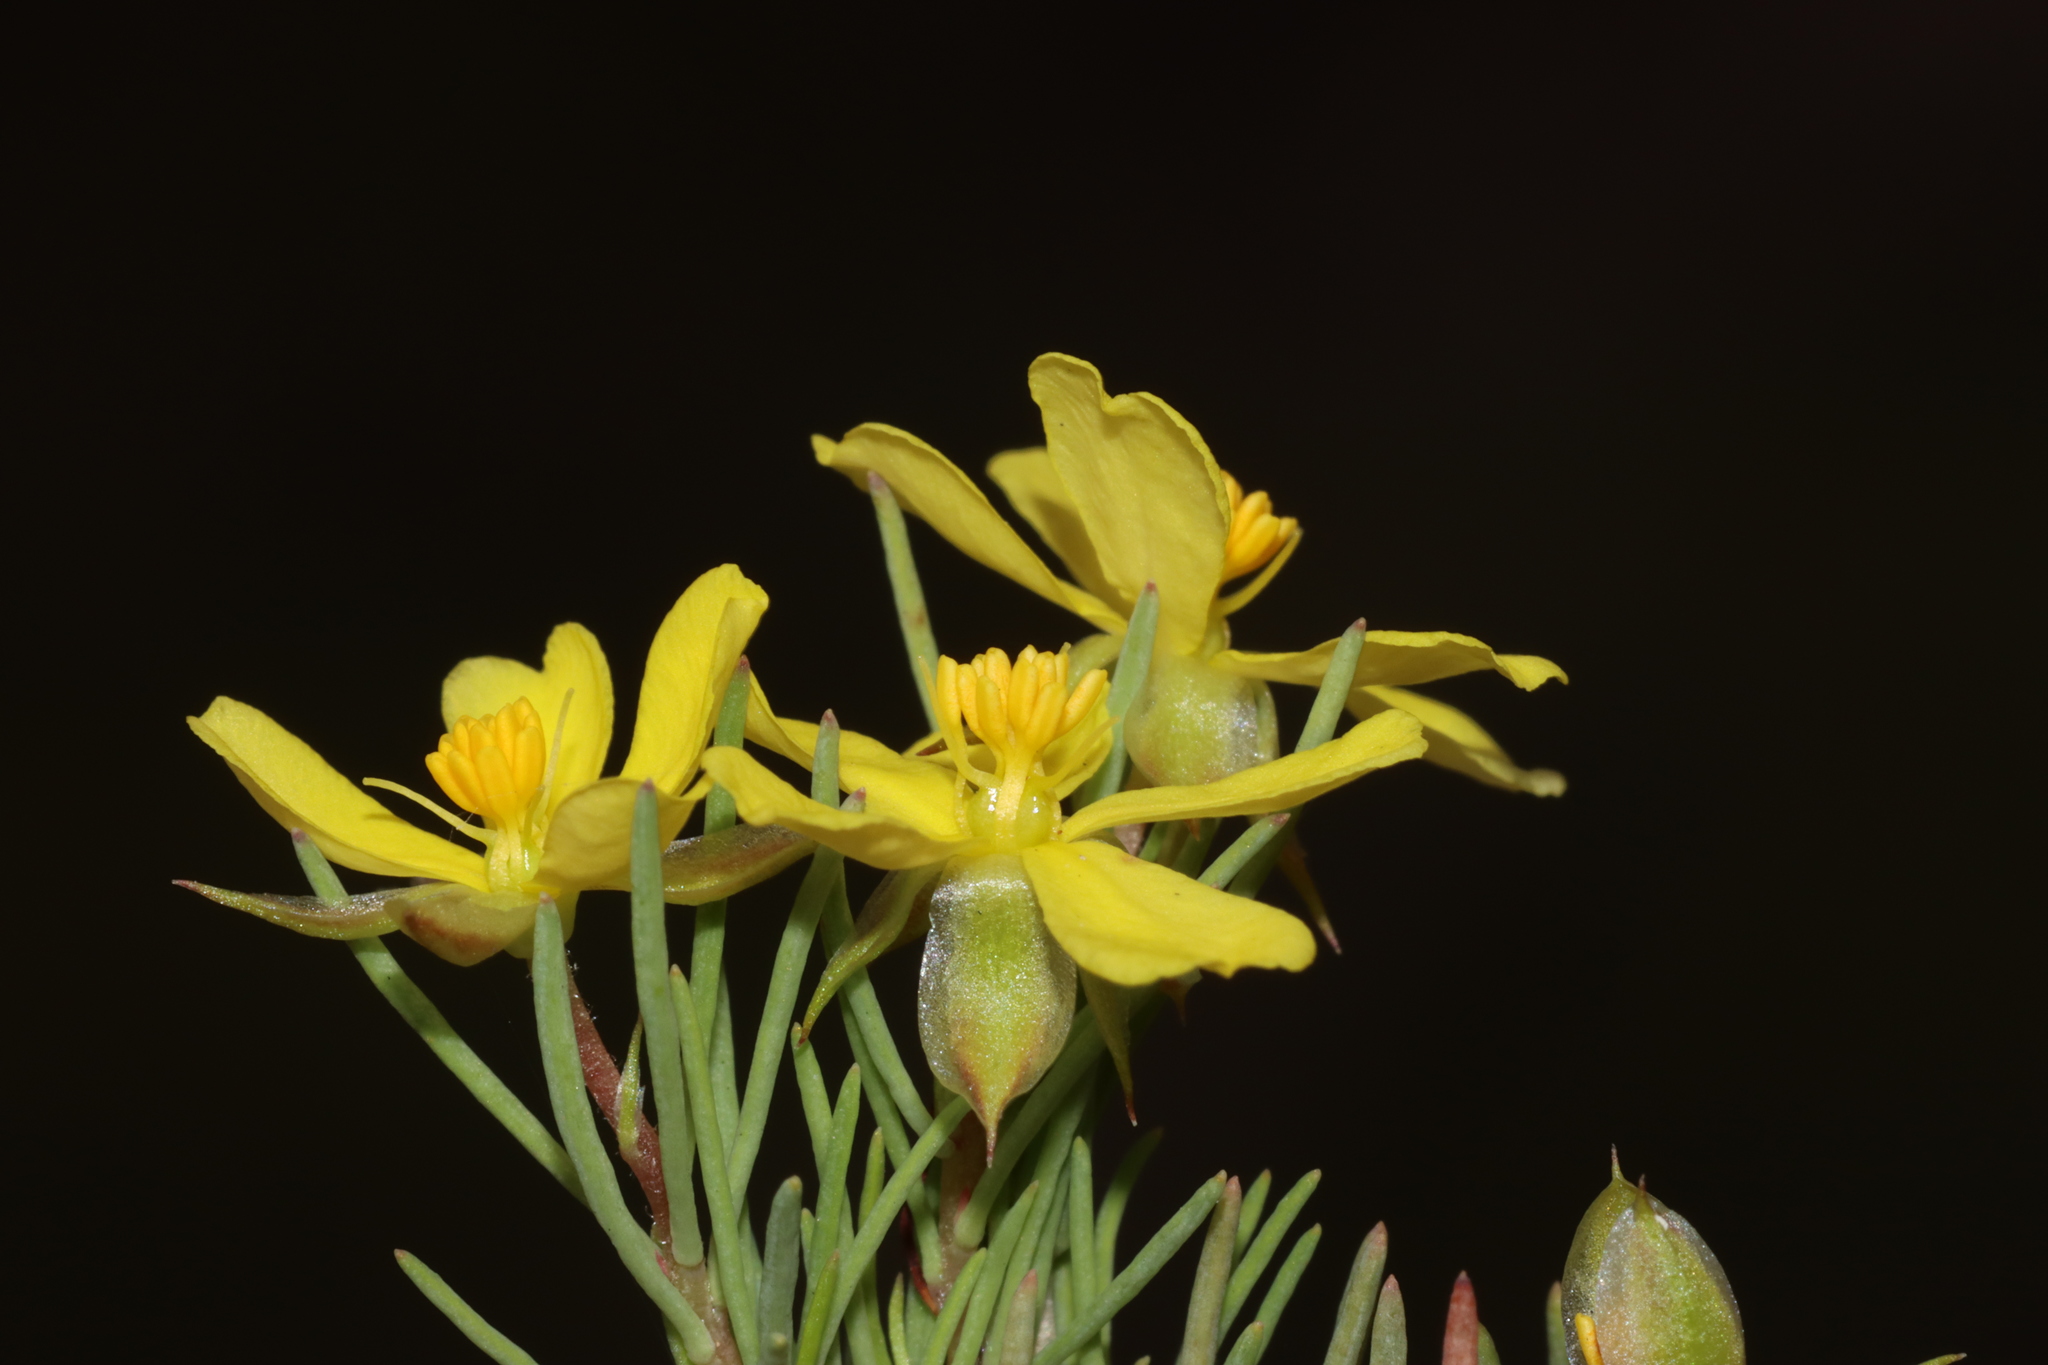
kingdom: Plantae
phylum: Tracheophyta
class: Magnoliopsida
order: Dilleniales
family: Dilleniaceae
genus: Hibbertia
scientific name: Hibbertia hibbertioides
